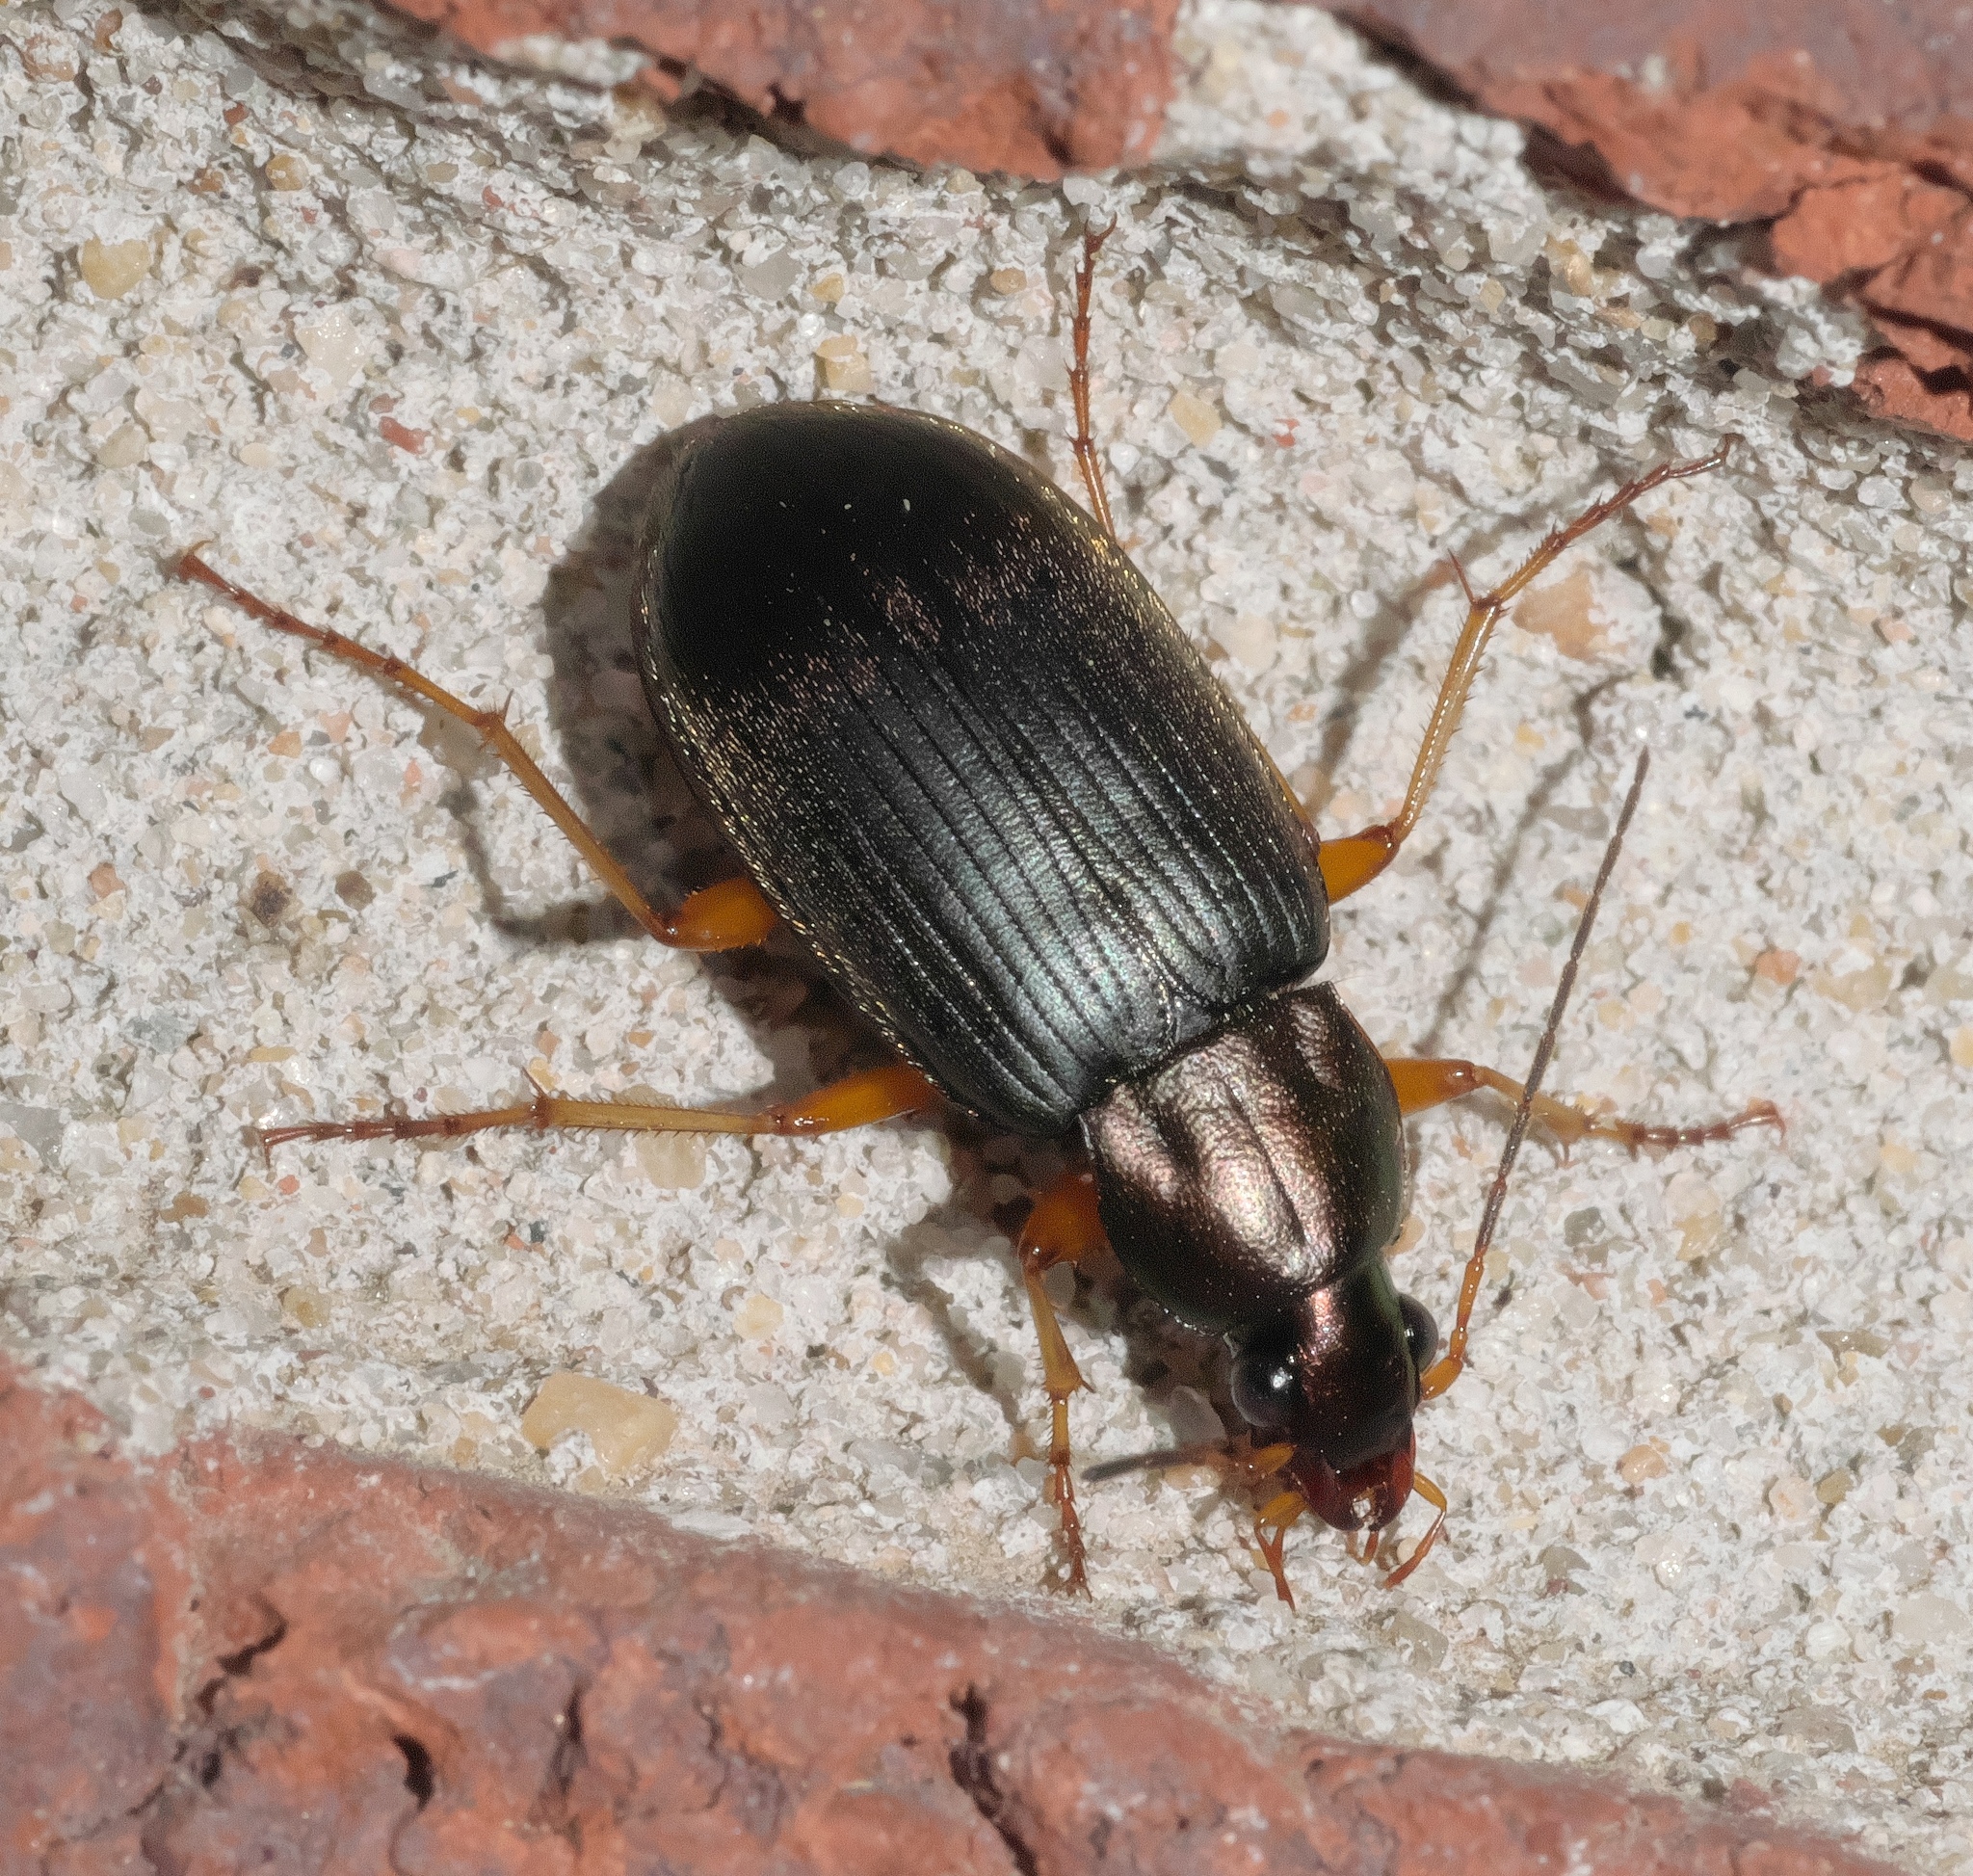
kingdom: Animalia
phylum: Arthropoda
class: Insecta
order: Coleoptera
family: Carabidae
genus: Chlaenius
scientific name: Chlaenius tricolor
